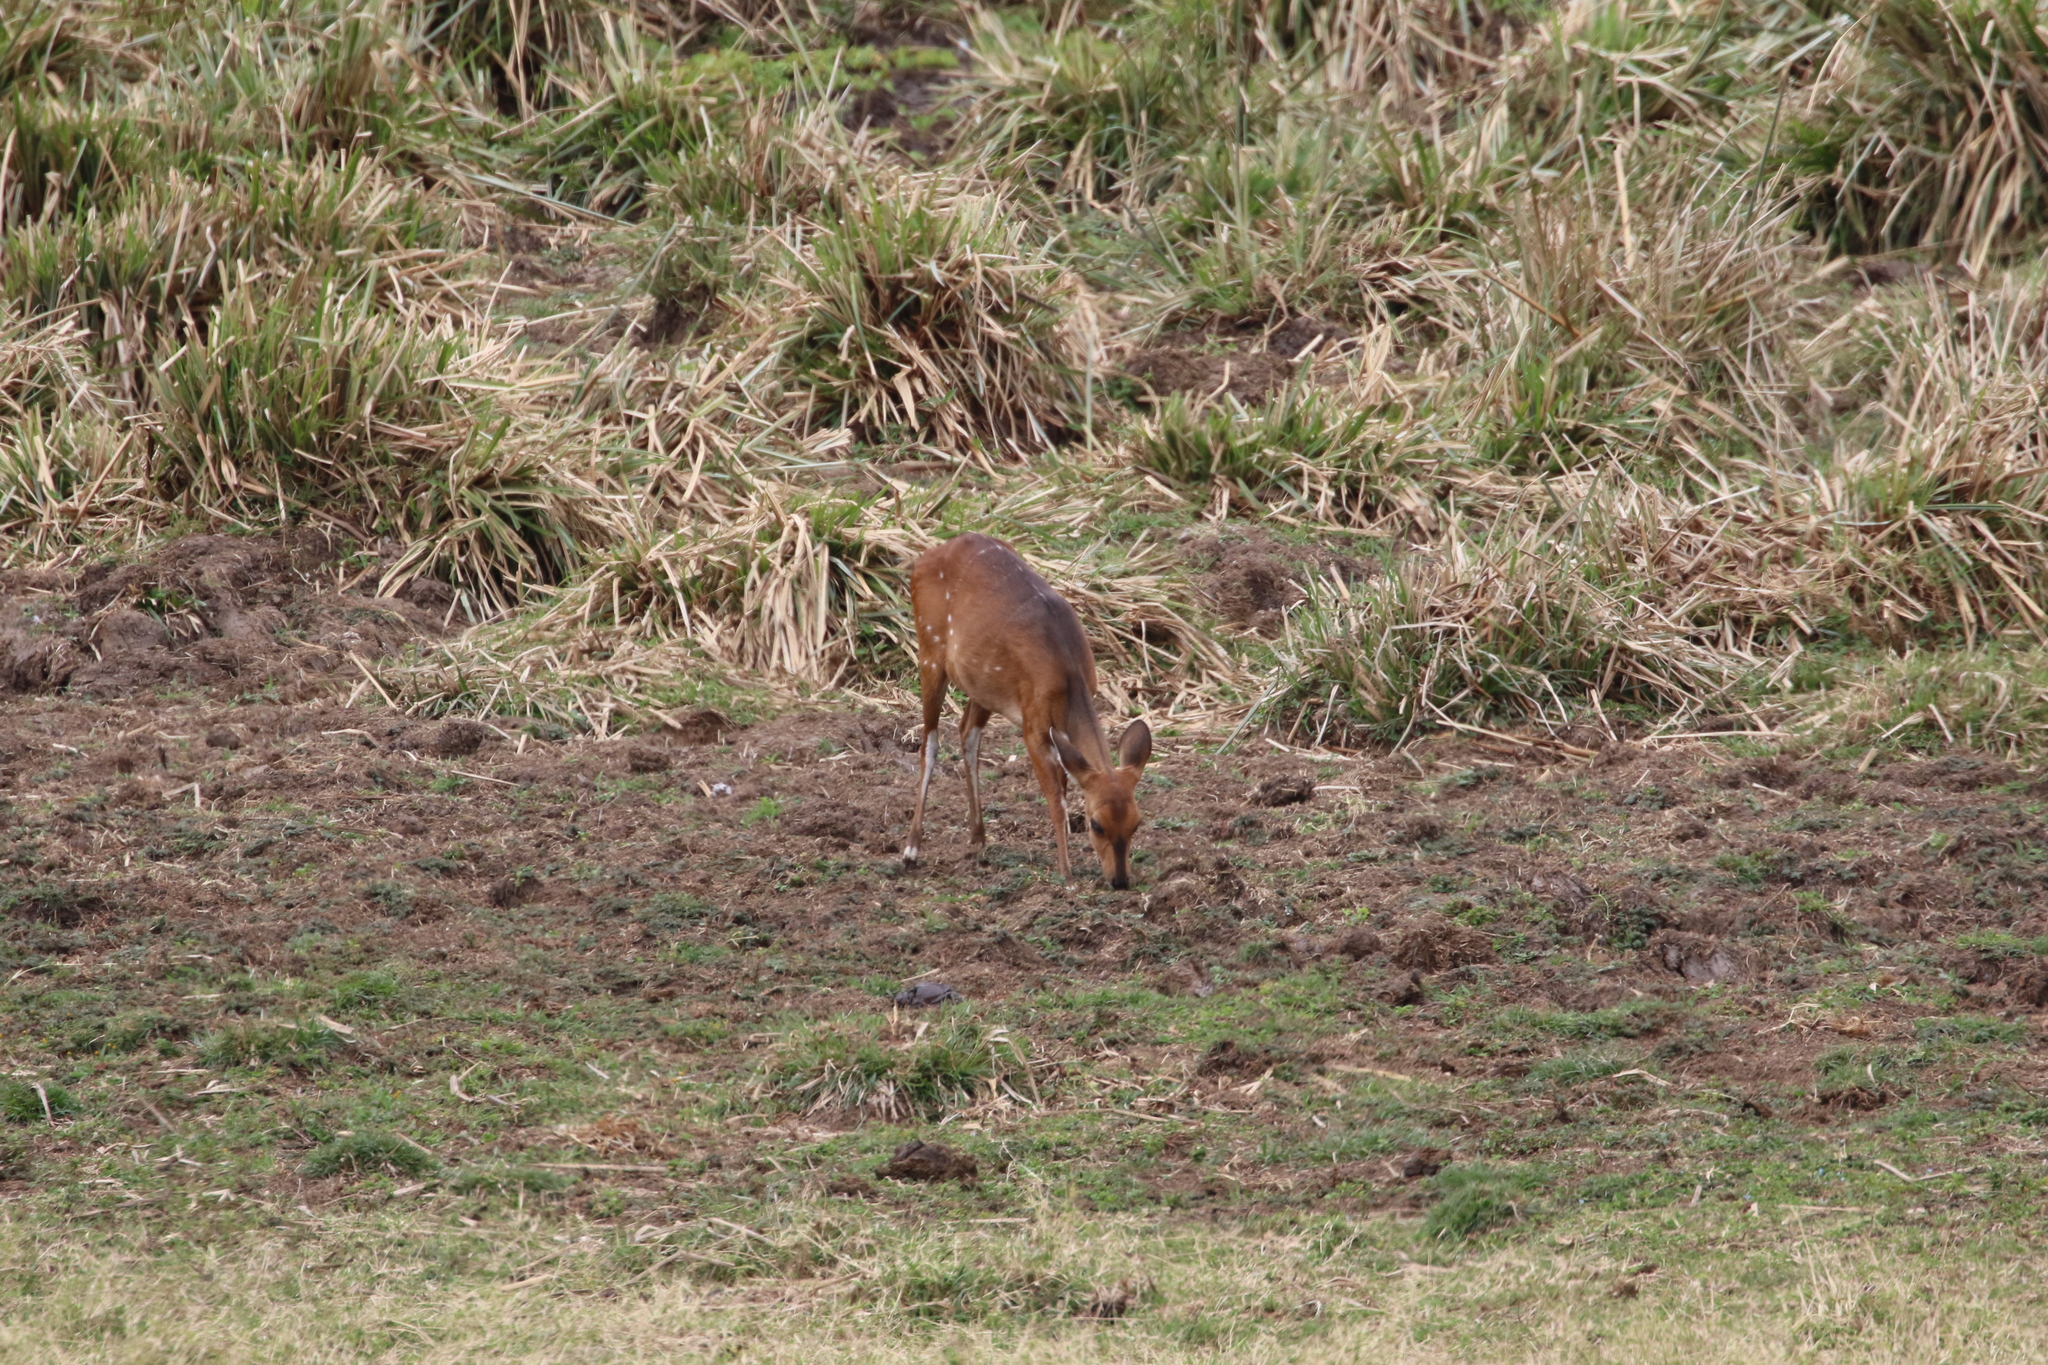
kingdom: Animalia
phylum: Chordata
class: Mammalia
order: Artiodactyla
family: Bovidae
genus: Tragelaphus
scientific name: Tragelaphus scriptus
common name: Bushbuck
